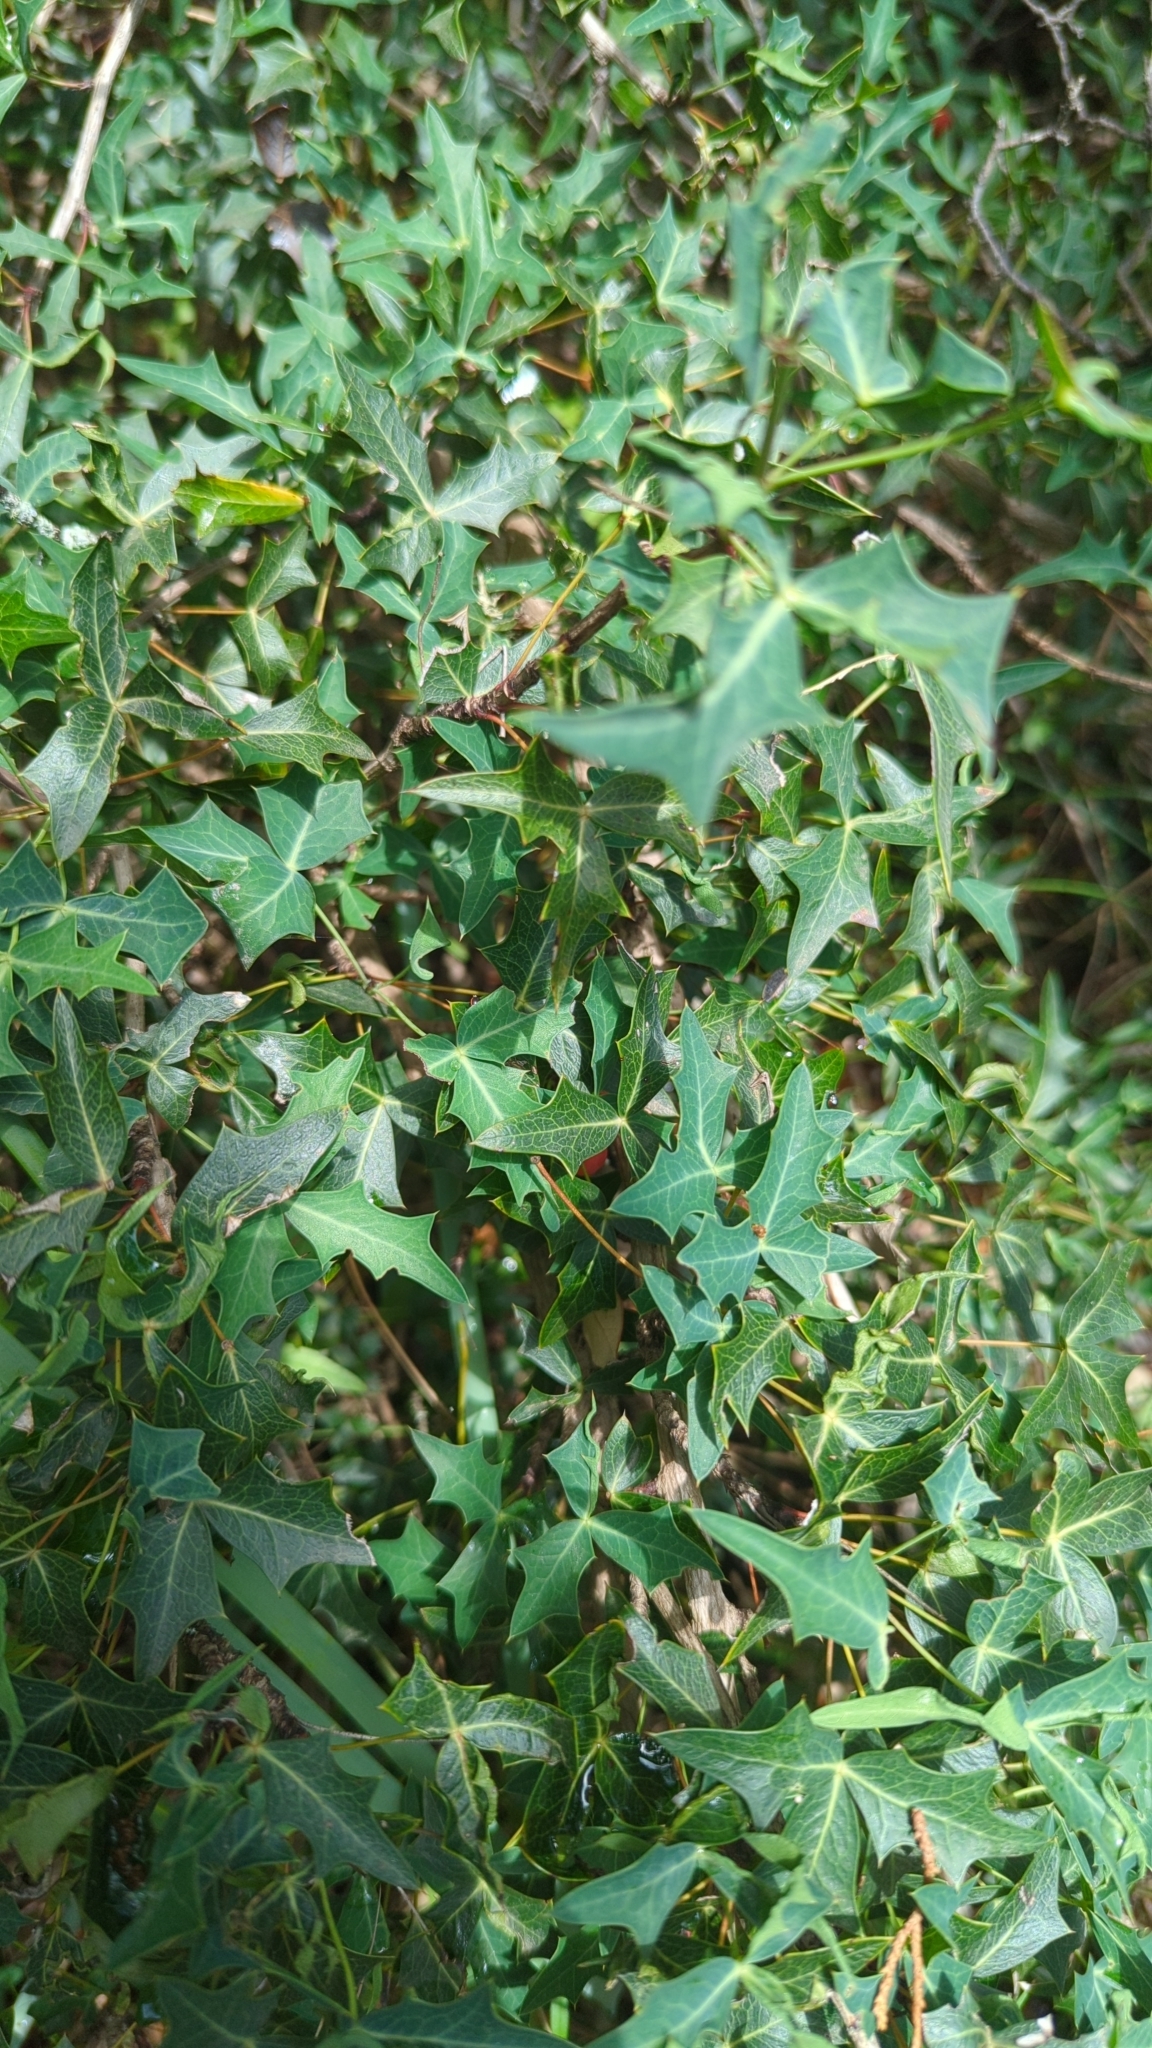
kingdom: Plantae
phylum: Tracheophyta
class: Magnoliopsida
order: Ranunculales
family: Berberidaceae
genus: Alloberberis
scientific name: Alloberberis trifoliolata
